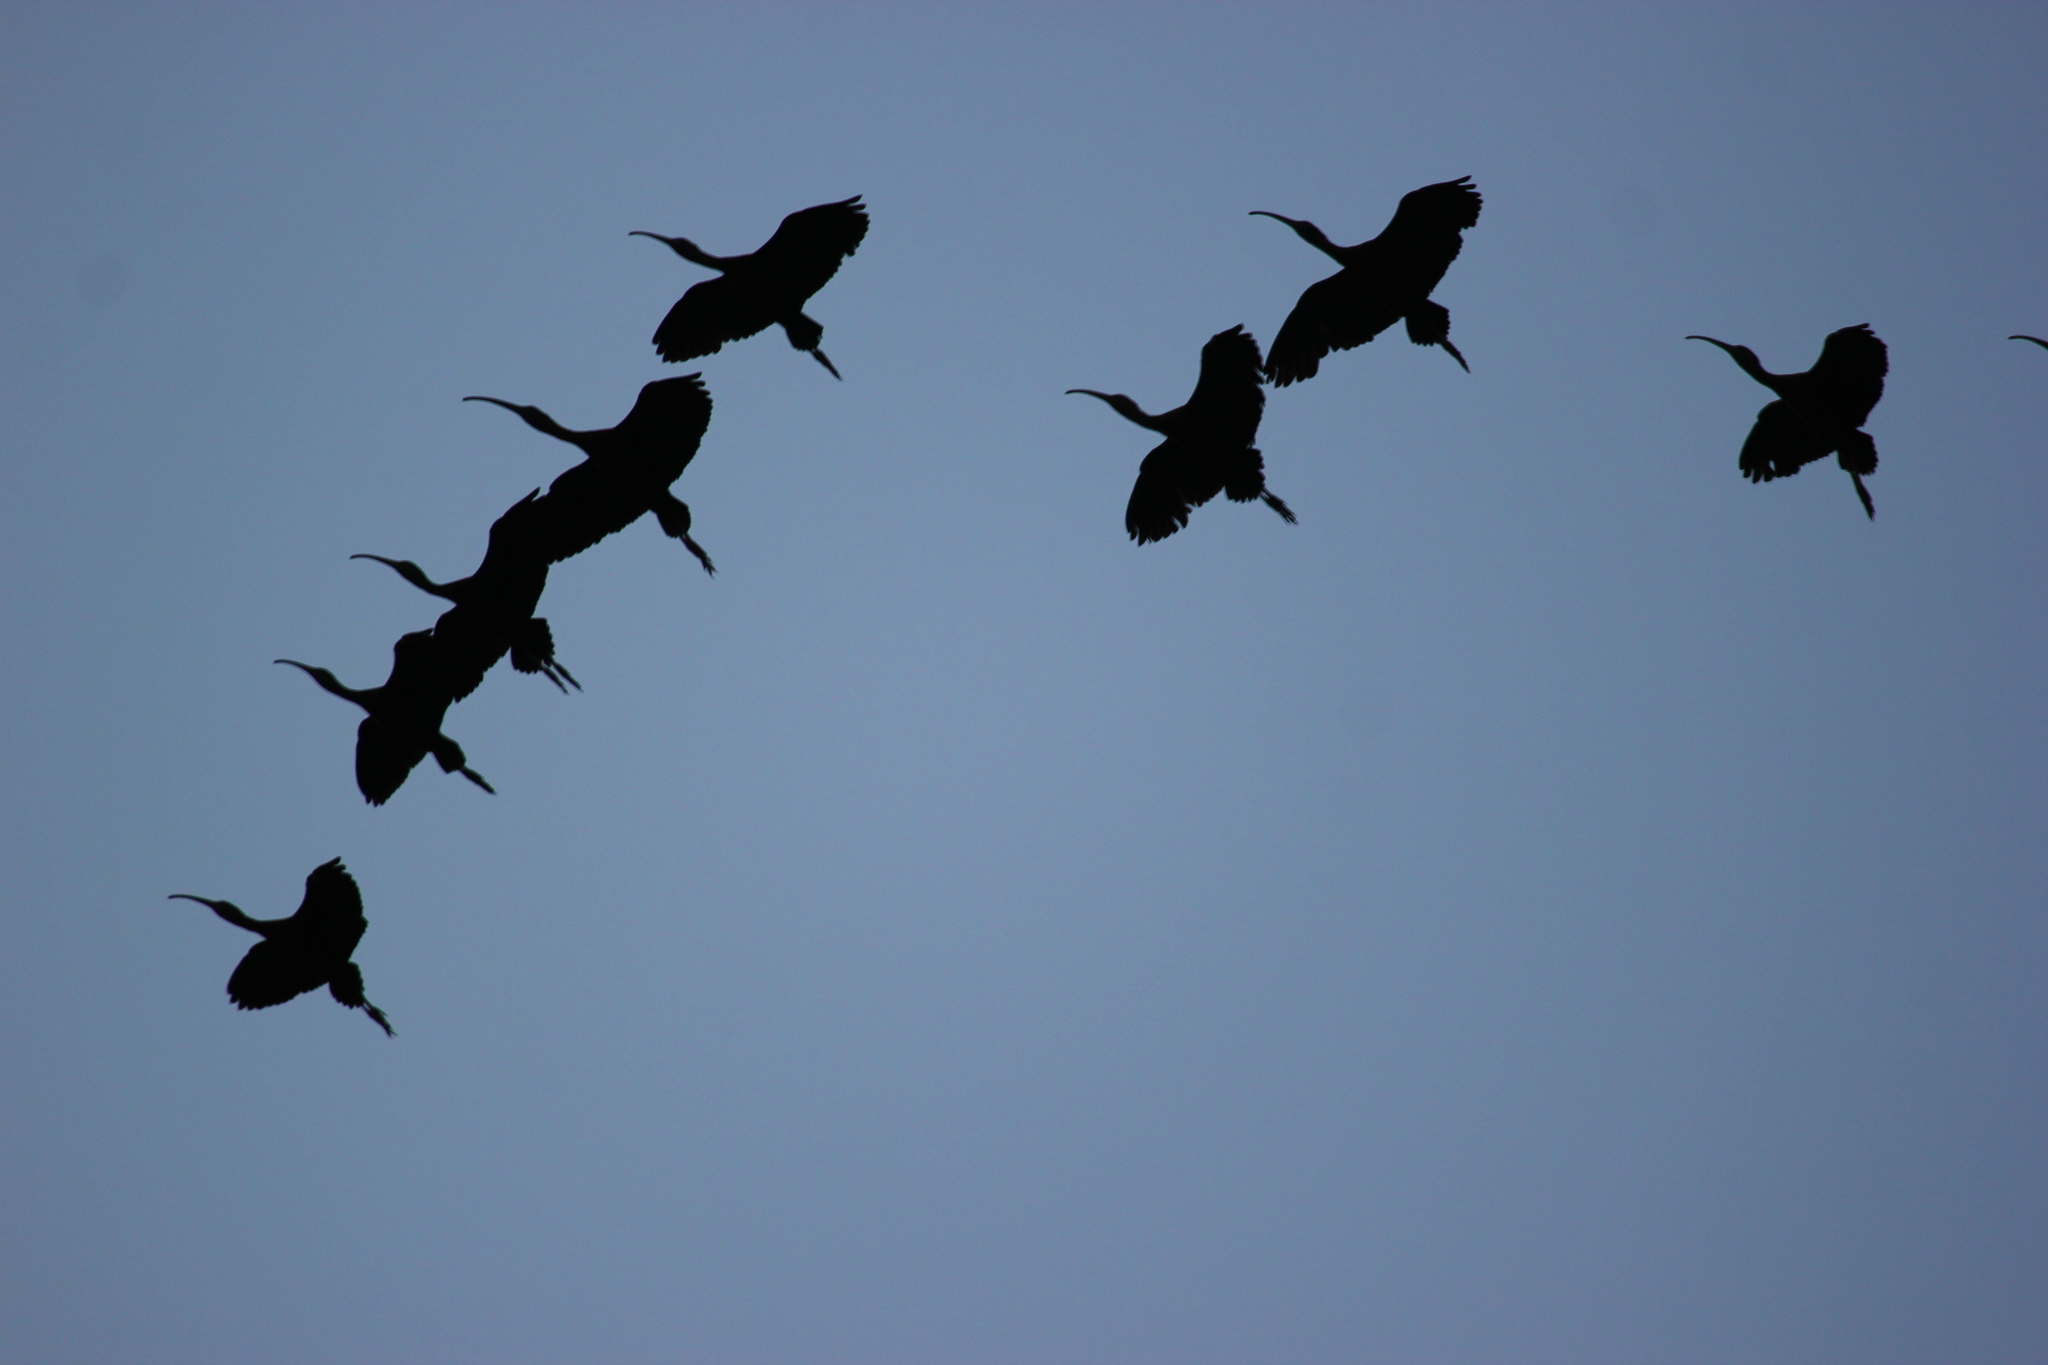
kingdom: Animalia
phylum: Chordata
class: Aves
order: Pelecaniformes
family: Threskiornithidae
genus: Plegadis
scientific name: Plegadis falcinellus
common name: Glossy ibis
